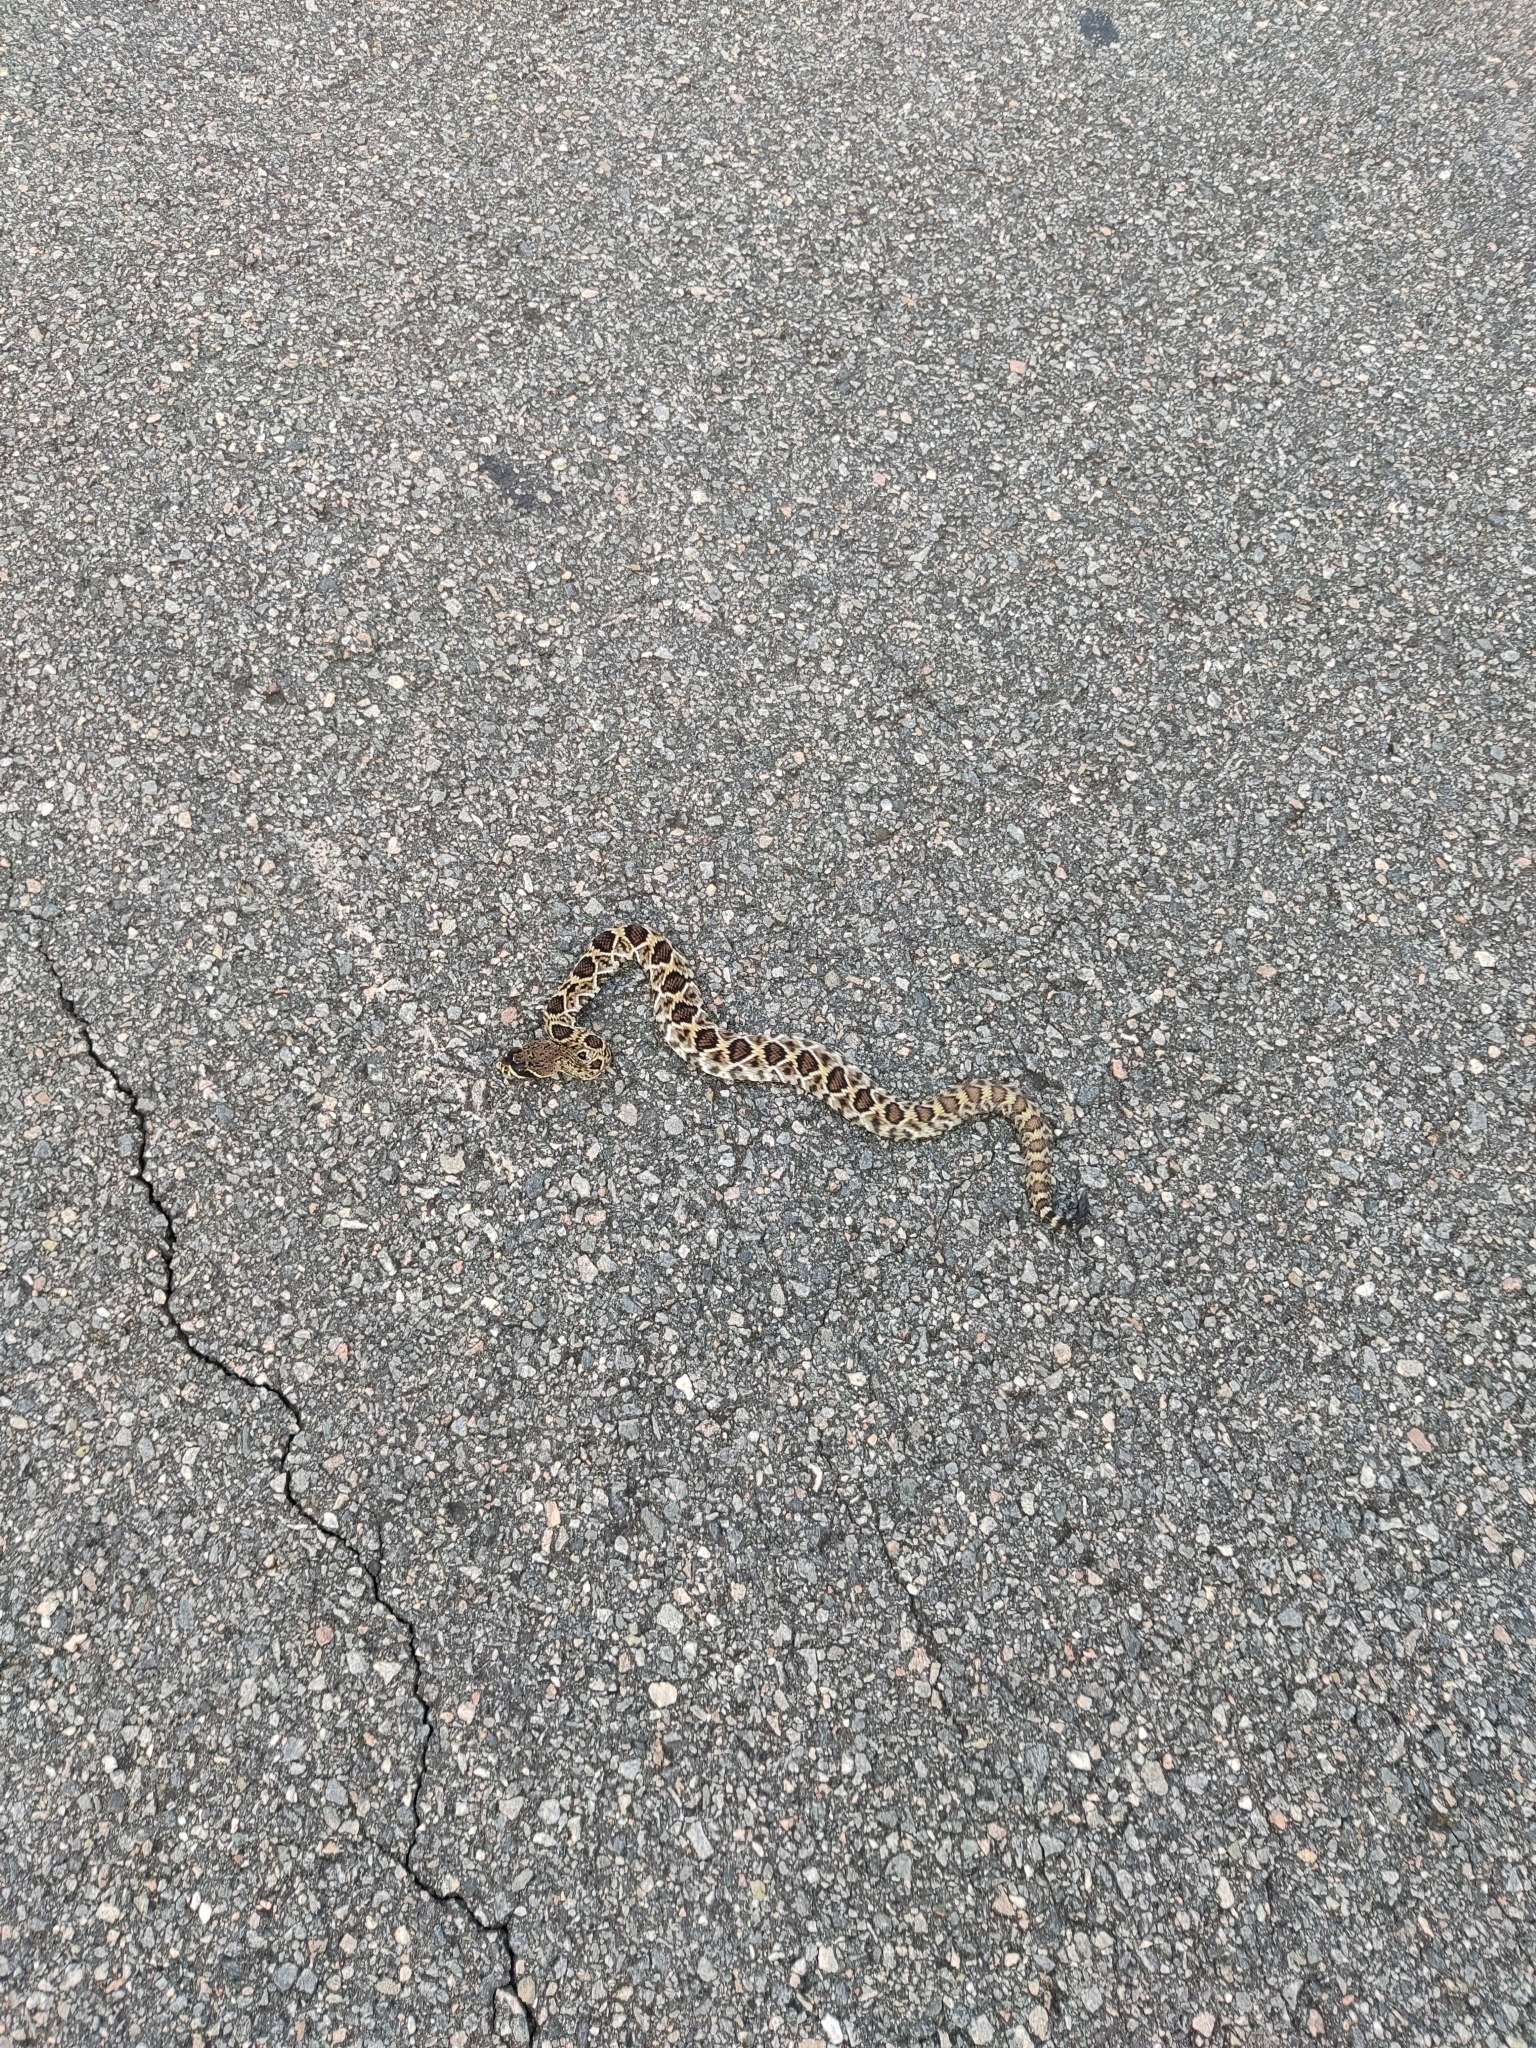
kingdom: Animalia
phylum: Chordata
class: Squamata
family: Viperidae
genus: Crotalus
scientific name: Crotalus adamanteus
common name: Eastern diamondback rattlesnake
